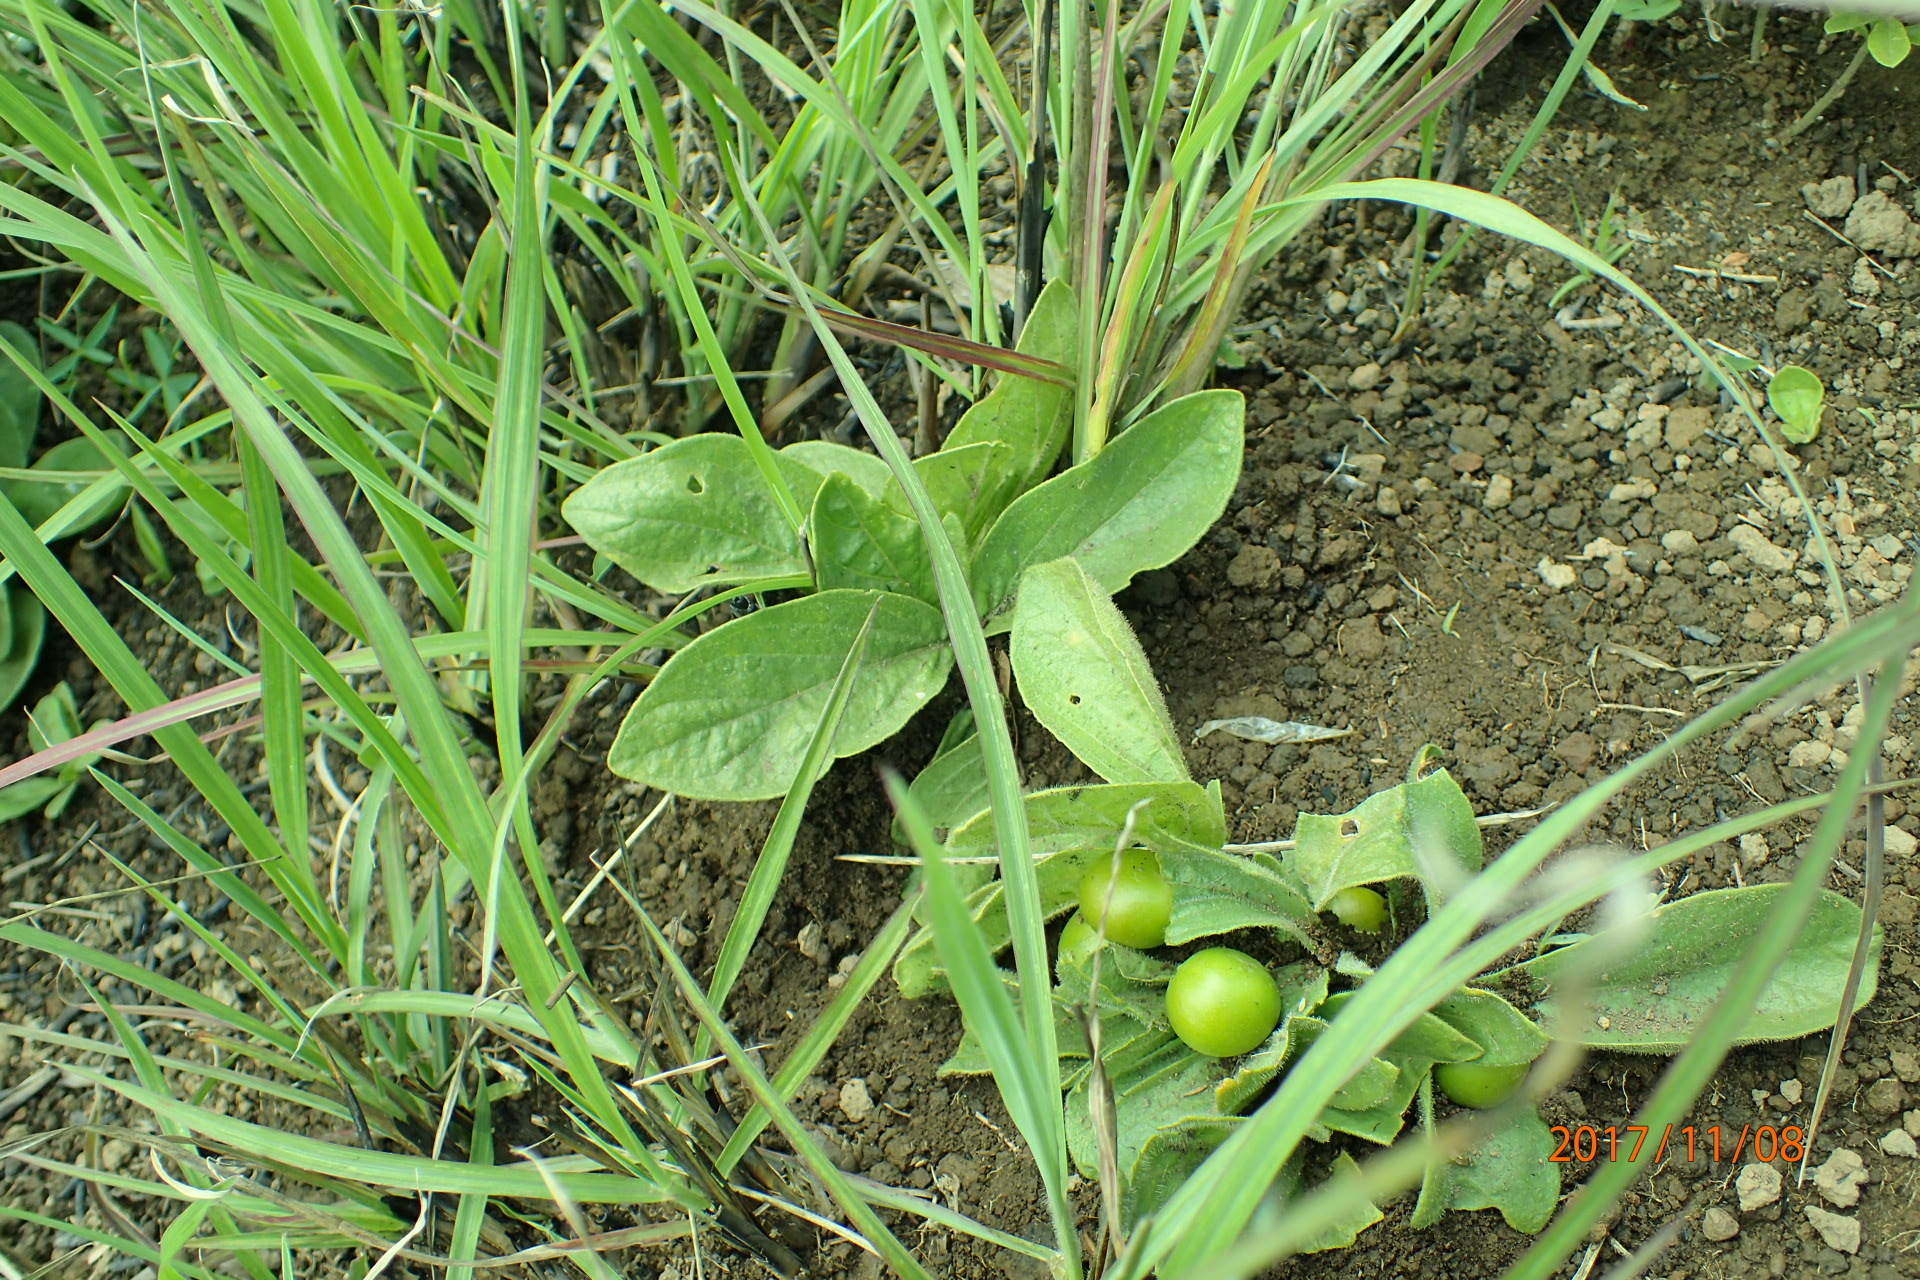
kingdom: Plantae
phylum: Tracheophyta
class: Magnoliopsida
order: Lamiales
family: Orobanchaceae
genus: Buchnera
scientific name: Buchnera simplex
